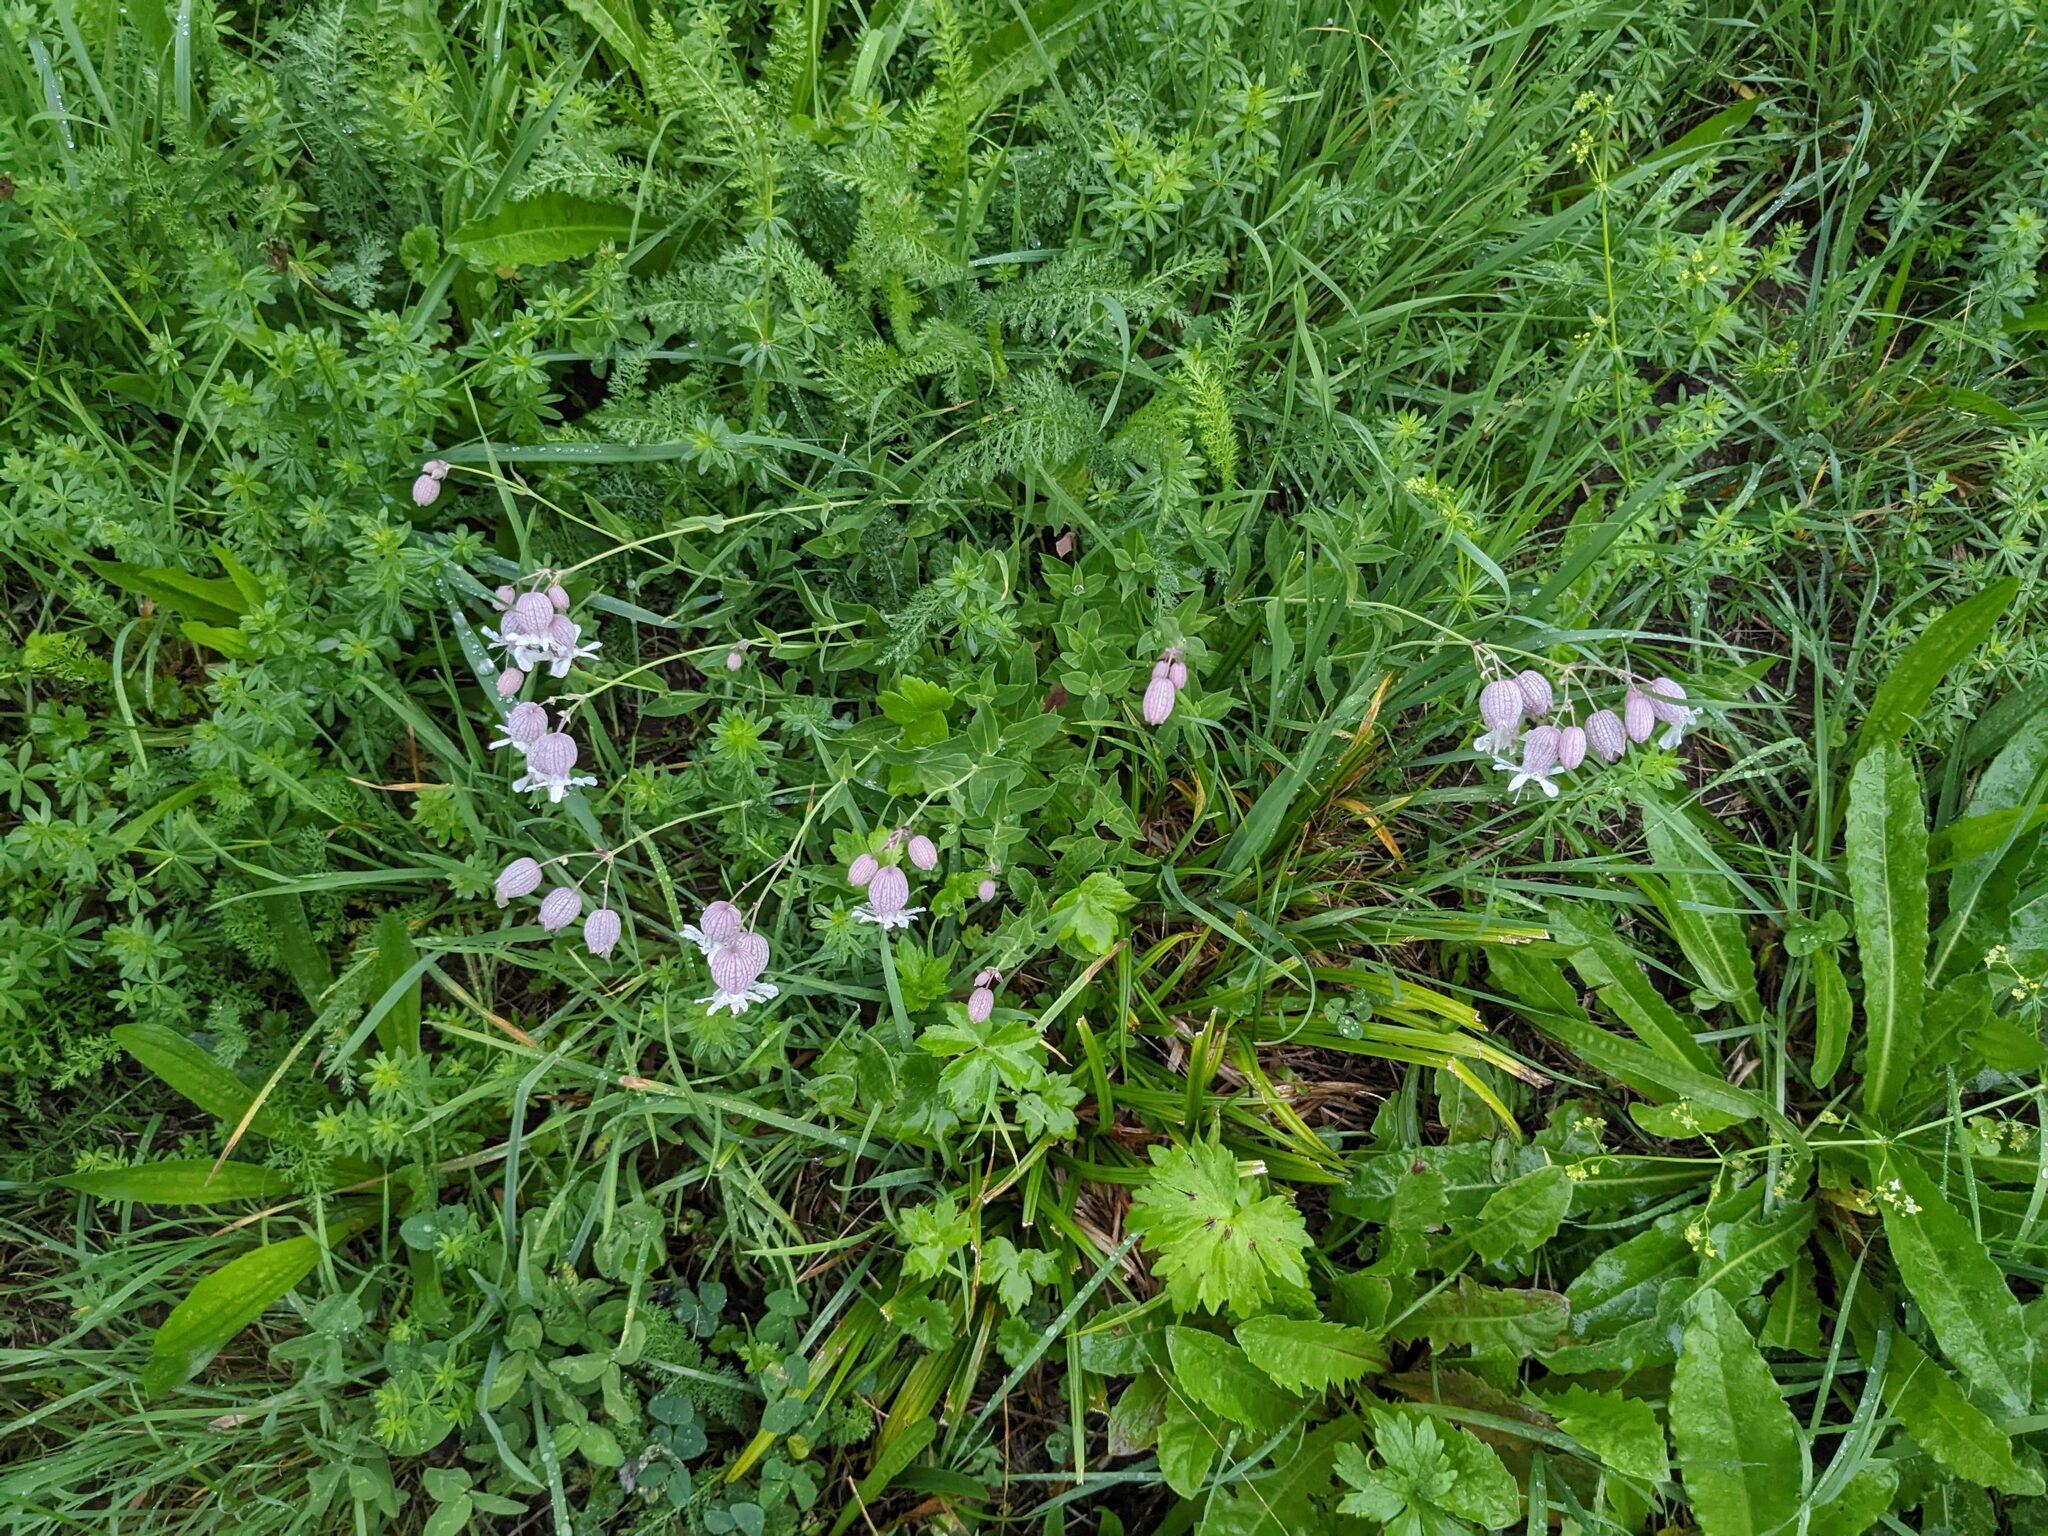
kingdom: Plantae
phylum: Tracheophyta
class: Magnoliopsida
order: Caryophyllales
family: Caryophyllaceae
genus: Silene
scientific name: Silene vulgaris
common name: Bladder campion
